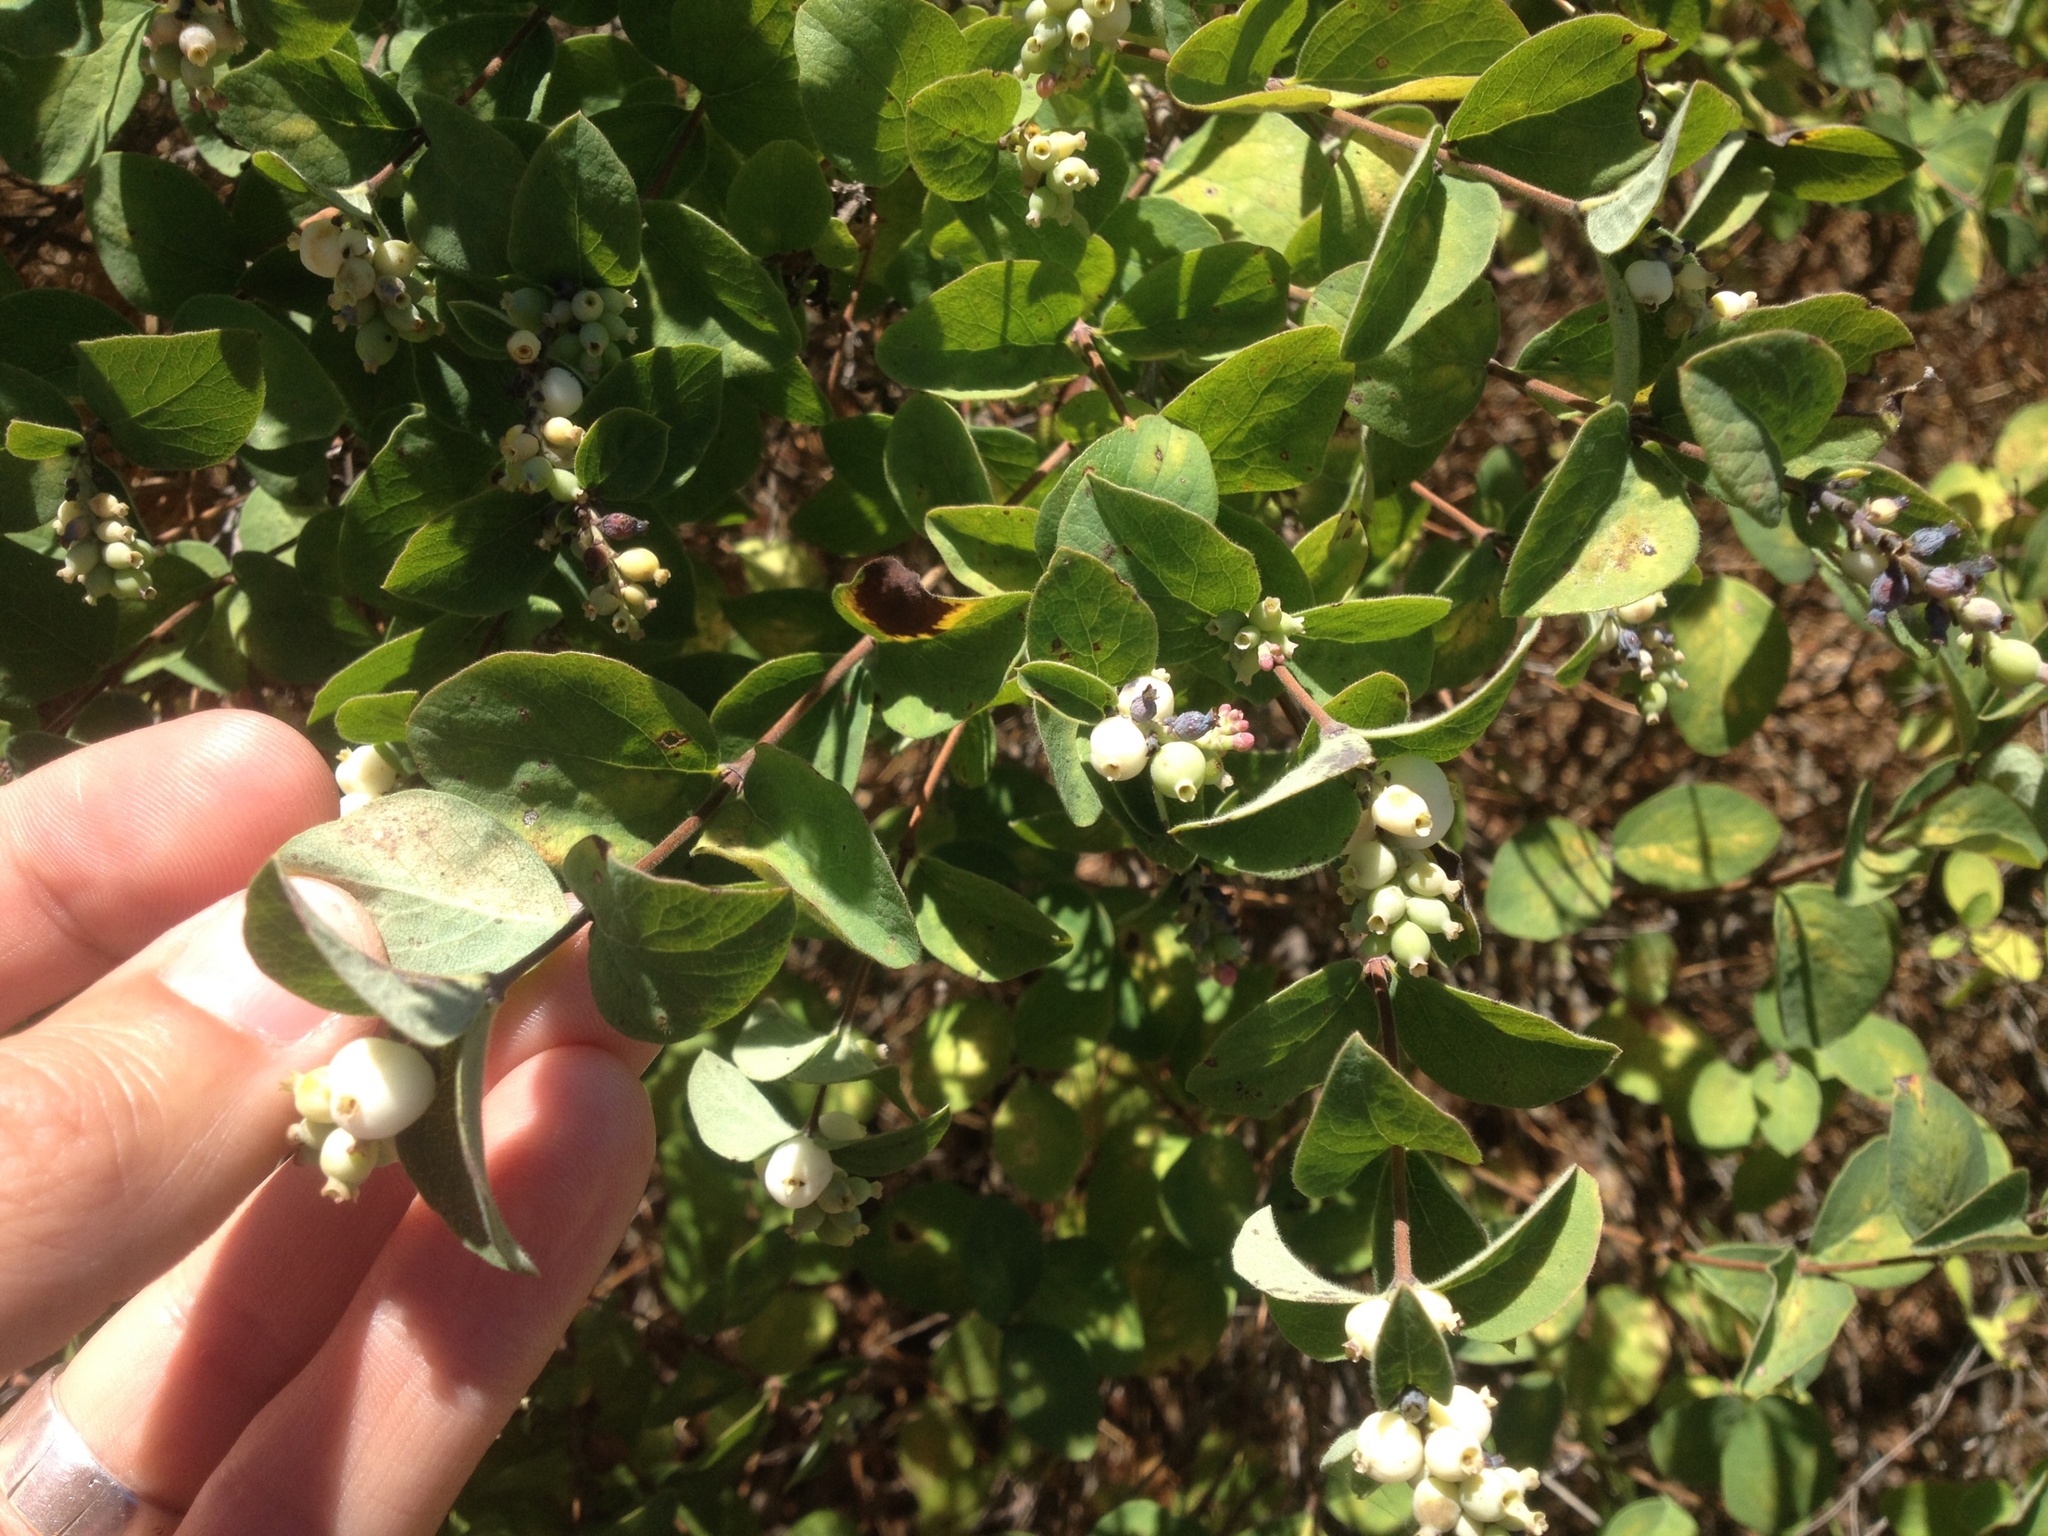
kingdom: Plantae
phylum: Tracheophyta
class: Magnoliopsida
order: Dipsacales
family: Caprifoliaceae
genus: Symphoricarpos
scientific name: Symphoricarpos albus
